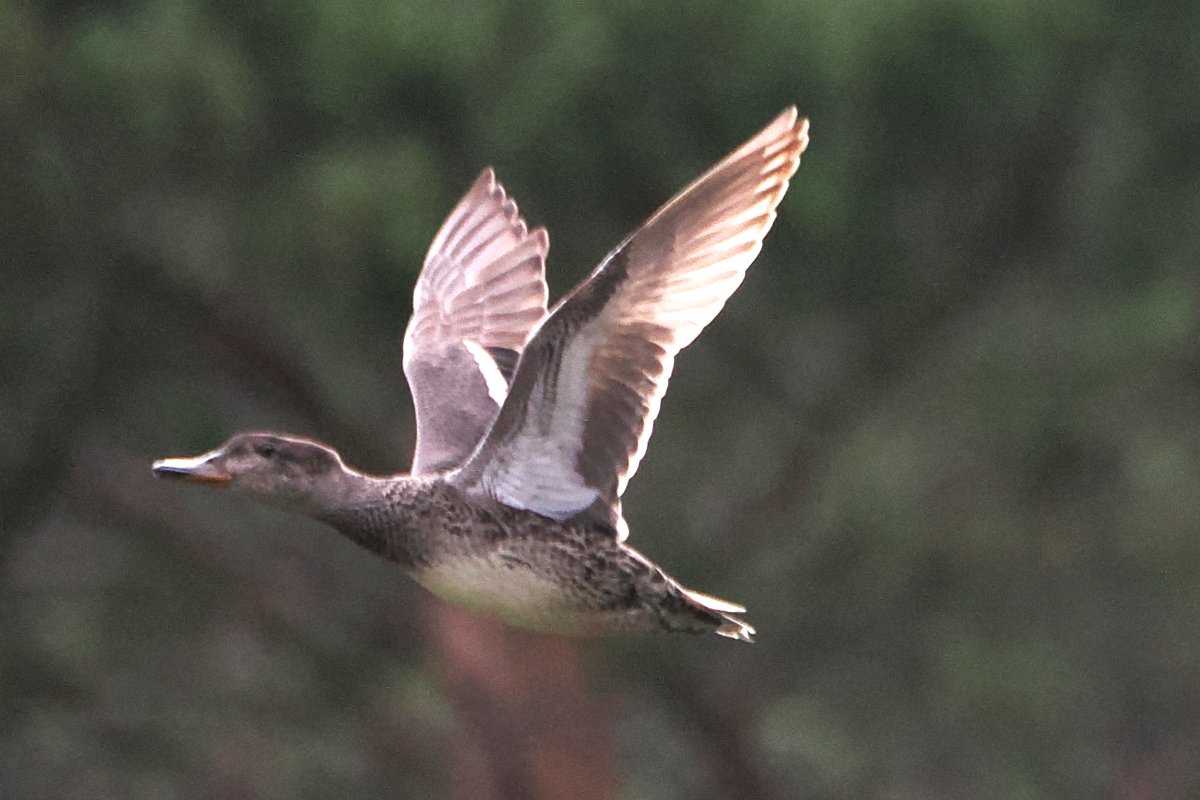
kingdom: Animalia
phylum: Chordata
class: Aves
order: Anseriformes
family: Anatidae
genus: Anas
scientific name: Anas crecca
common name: Eurasian teal
